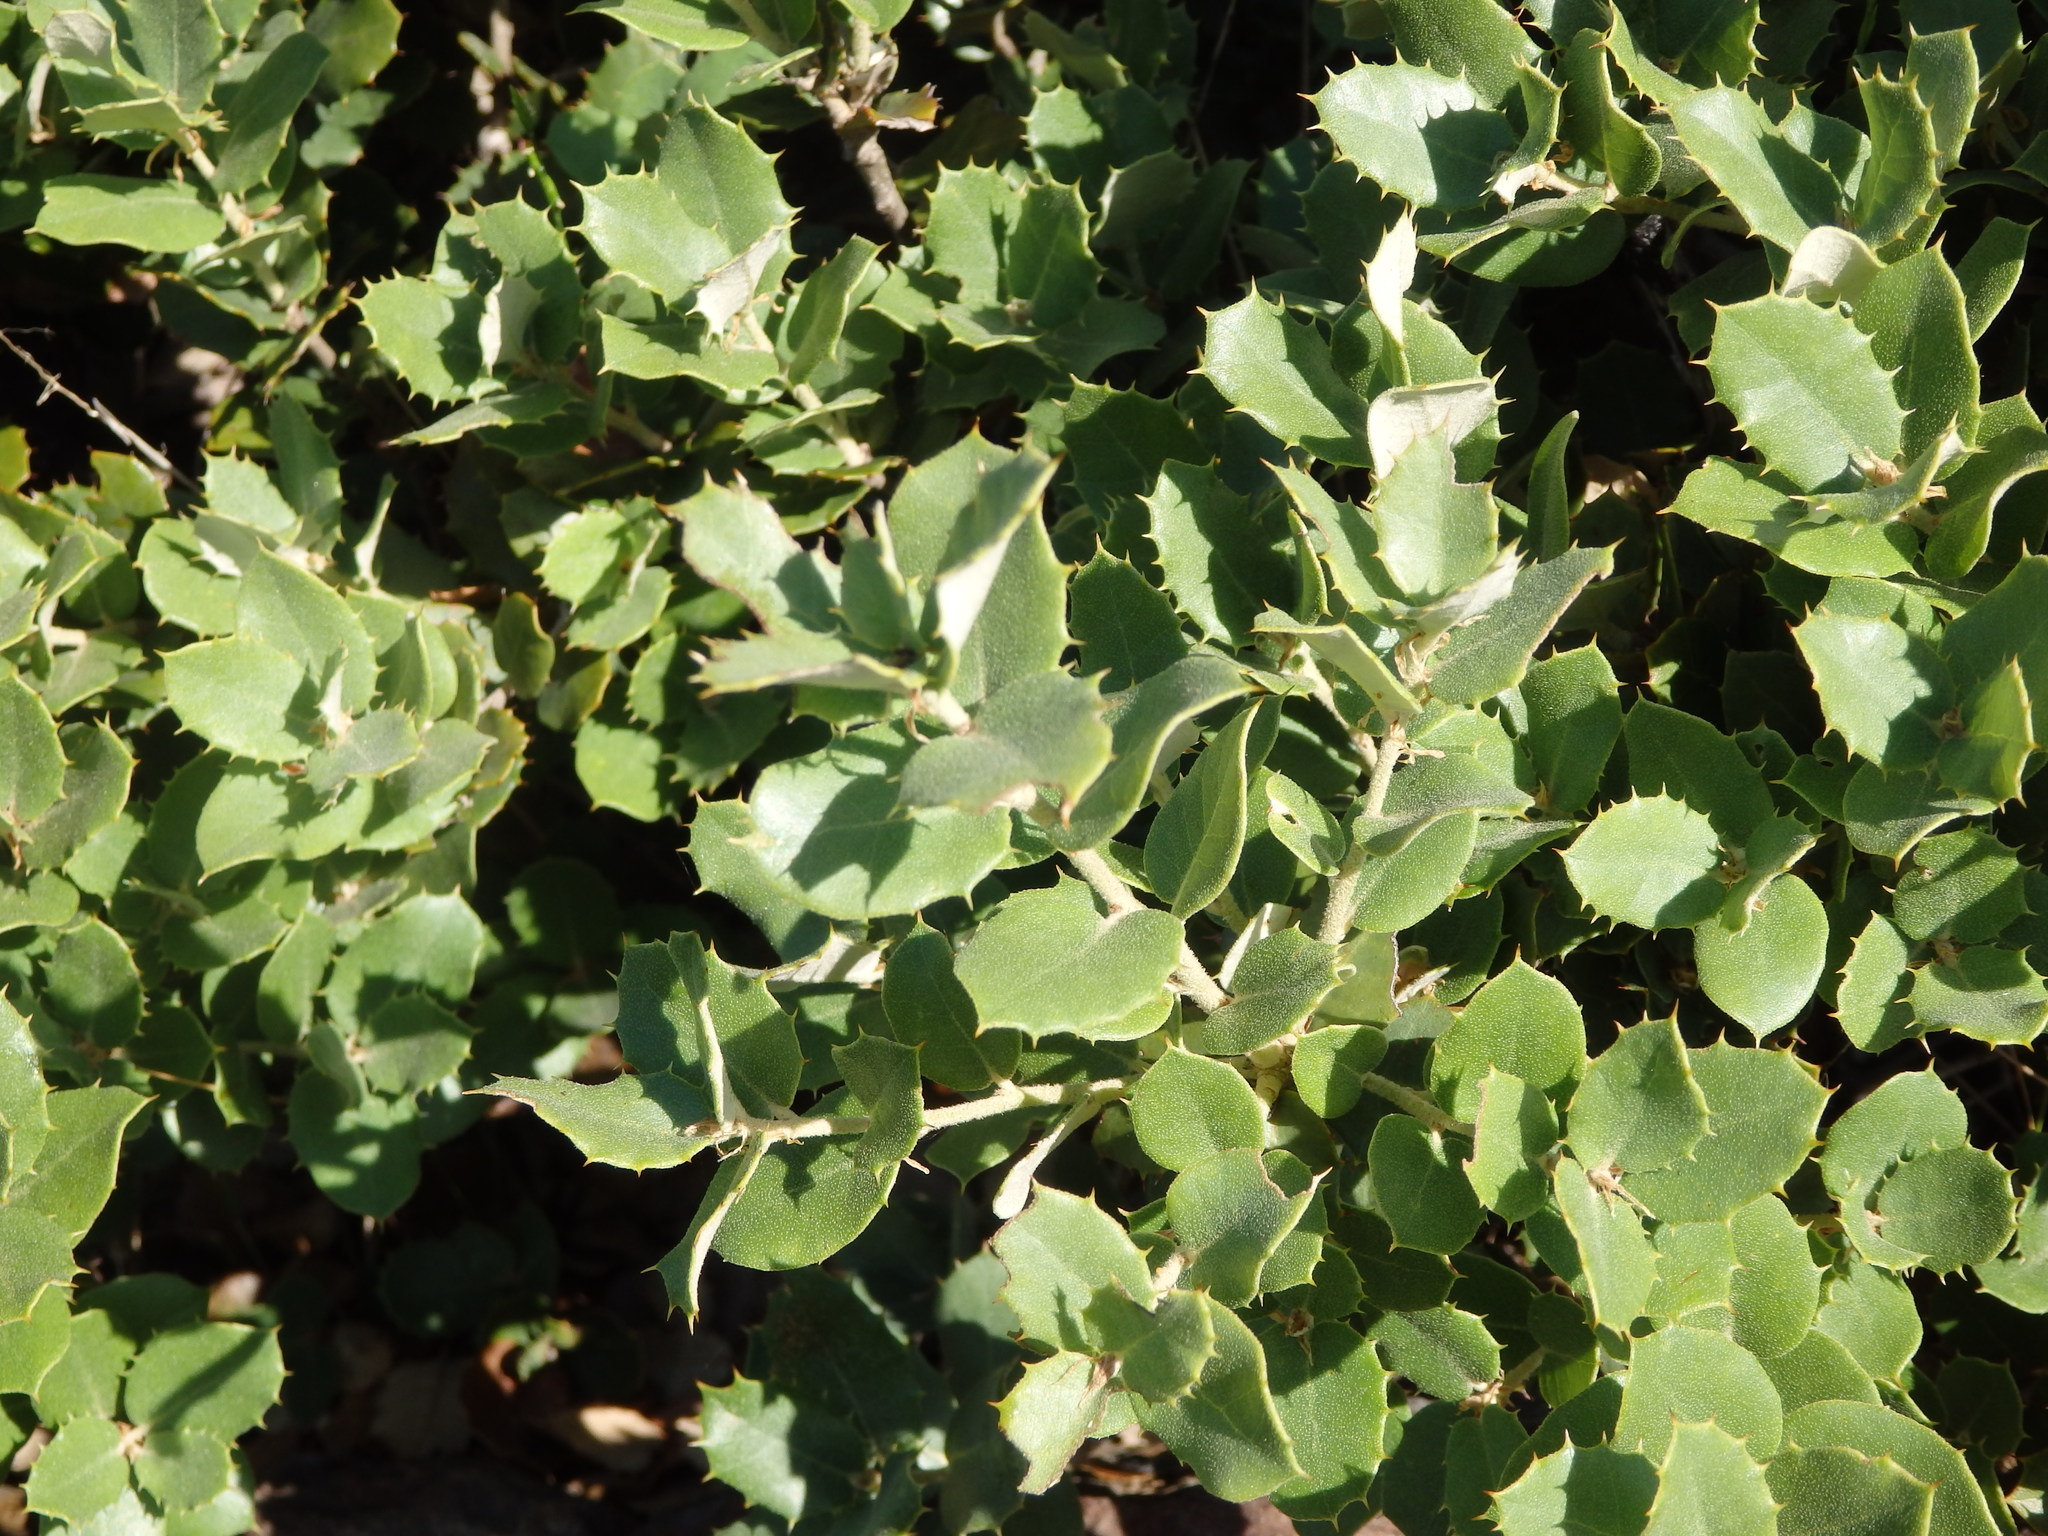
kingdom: Plantae
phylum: Tracheophyta
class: Magnoliopsida
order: Fagales
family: Fagaceae
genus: Quercus
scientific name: Quercus rotundifolia
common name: Holm oak
